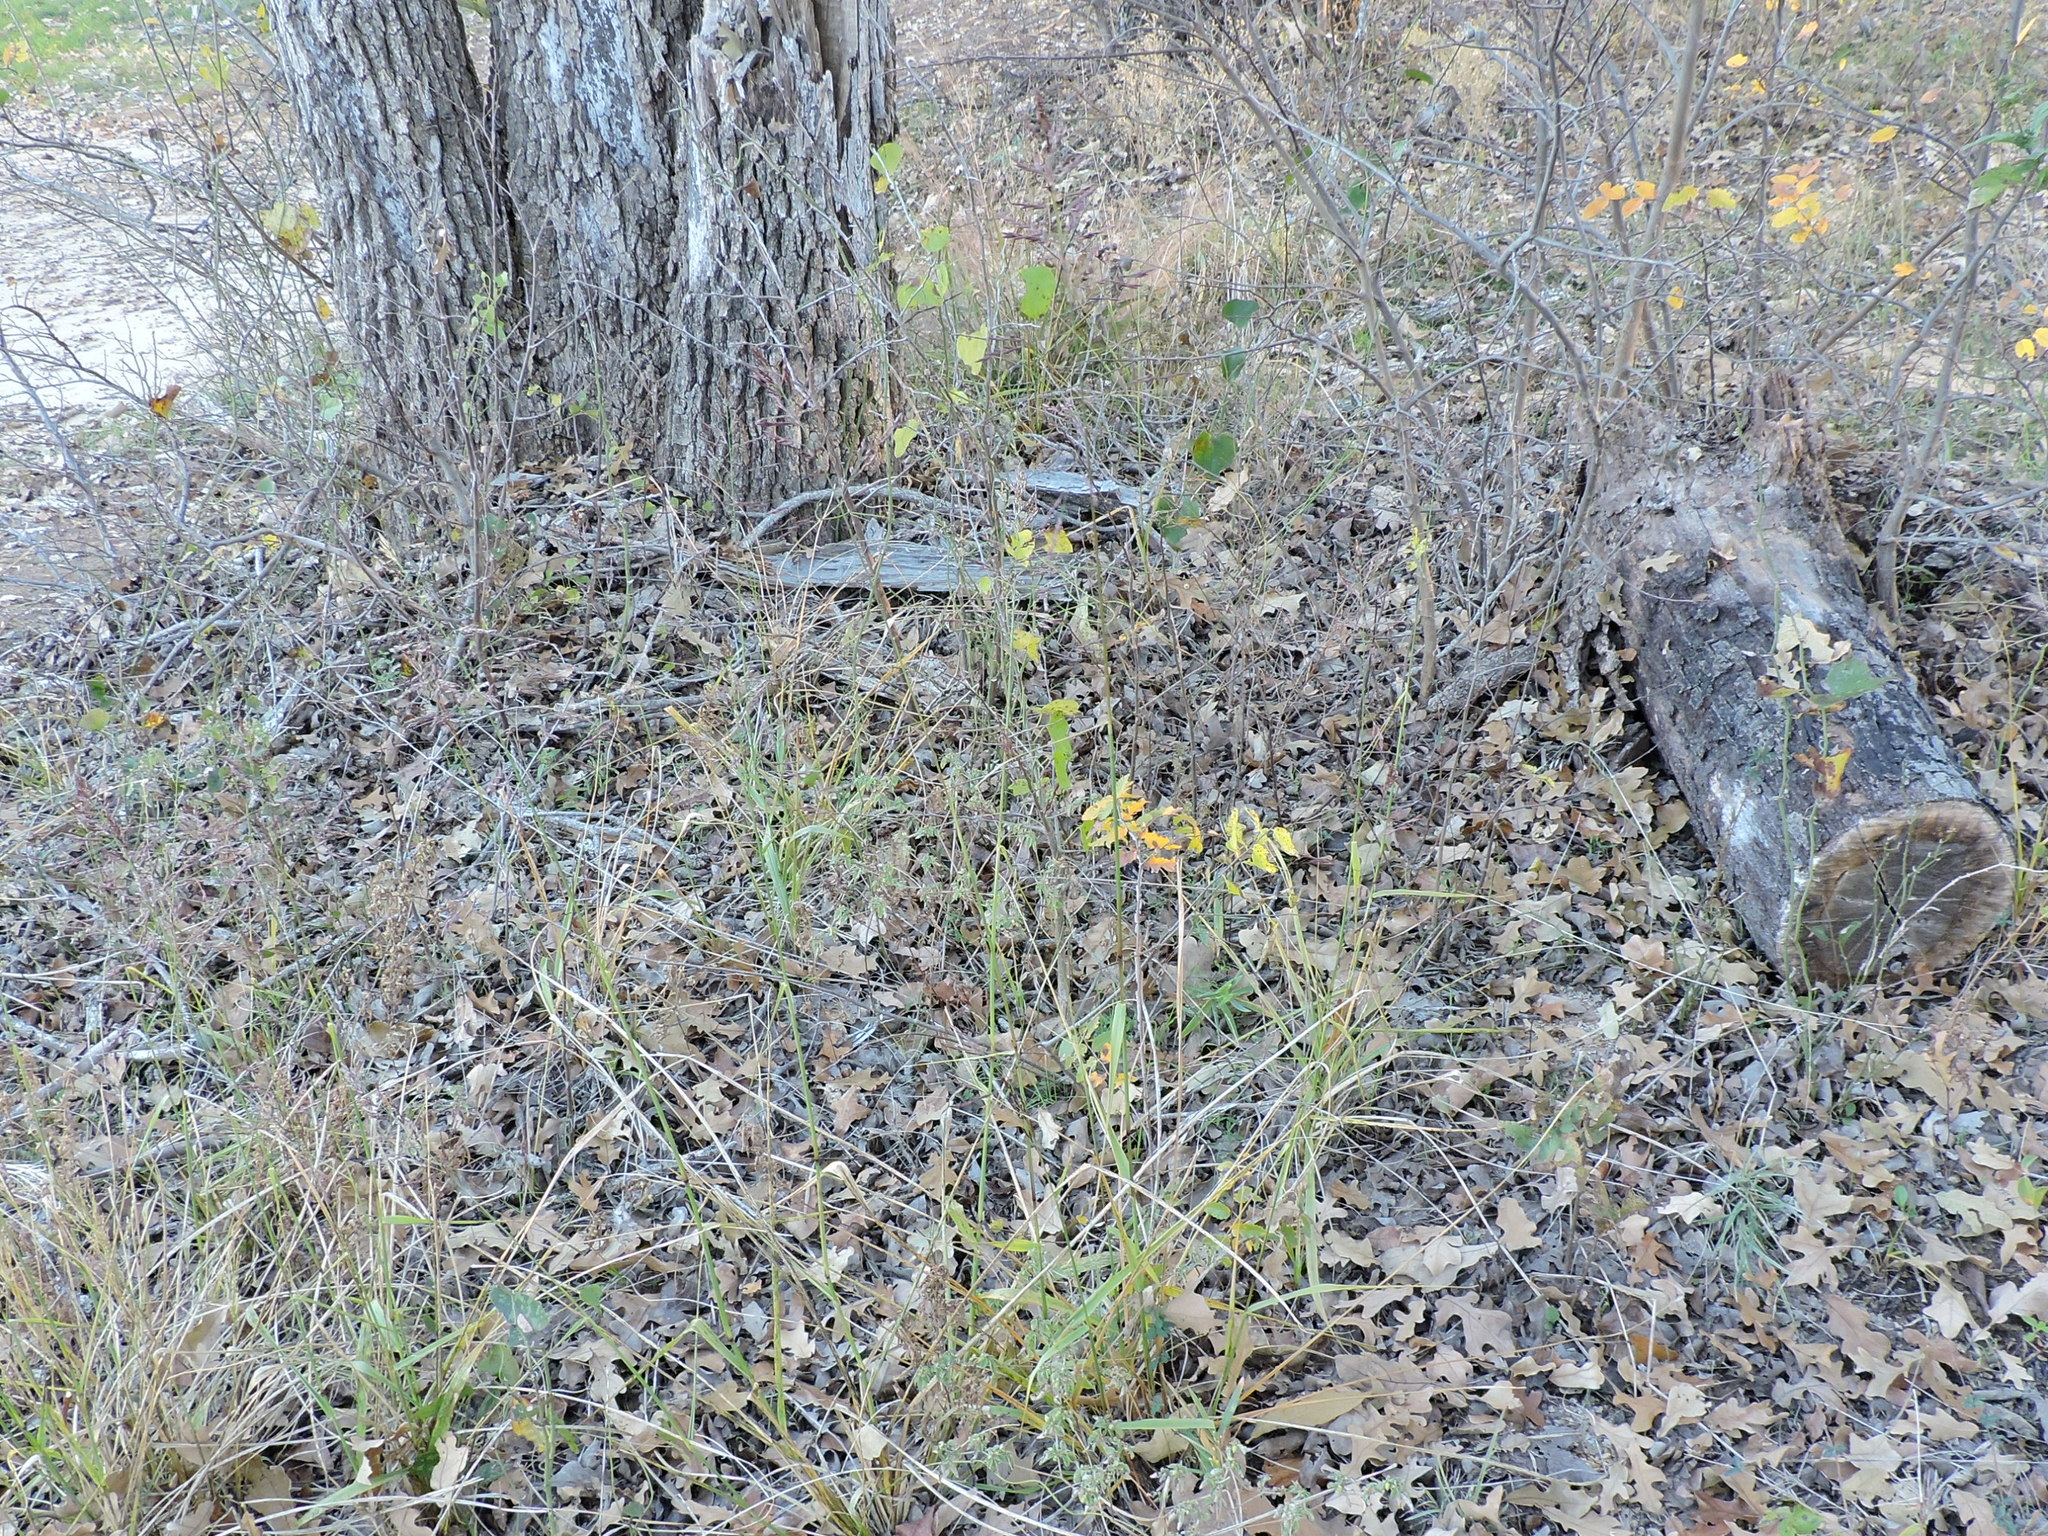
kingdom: Plantae
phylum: Tracheophyta
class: Liliopsida
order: Poales
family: Poaceae
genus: Tridens
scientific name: Tridens flavus
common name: Purpletop
